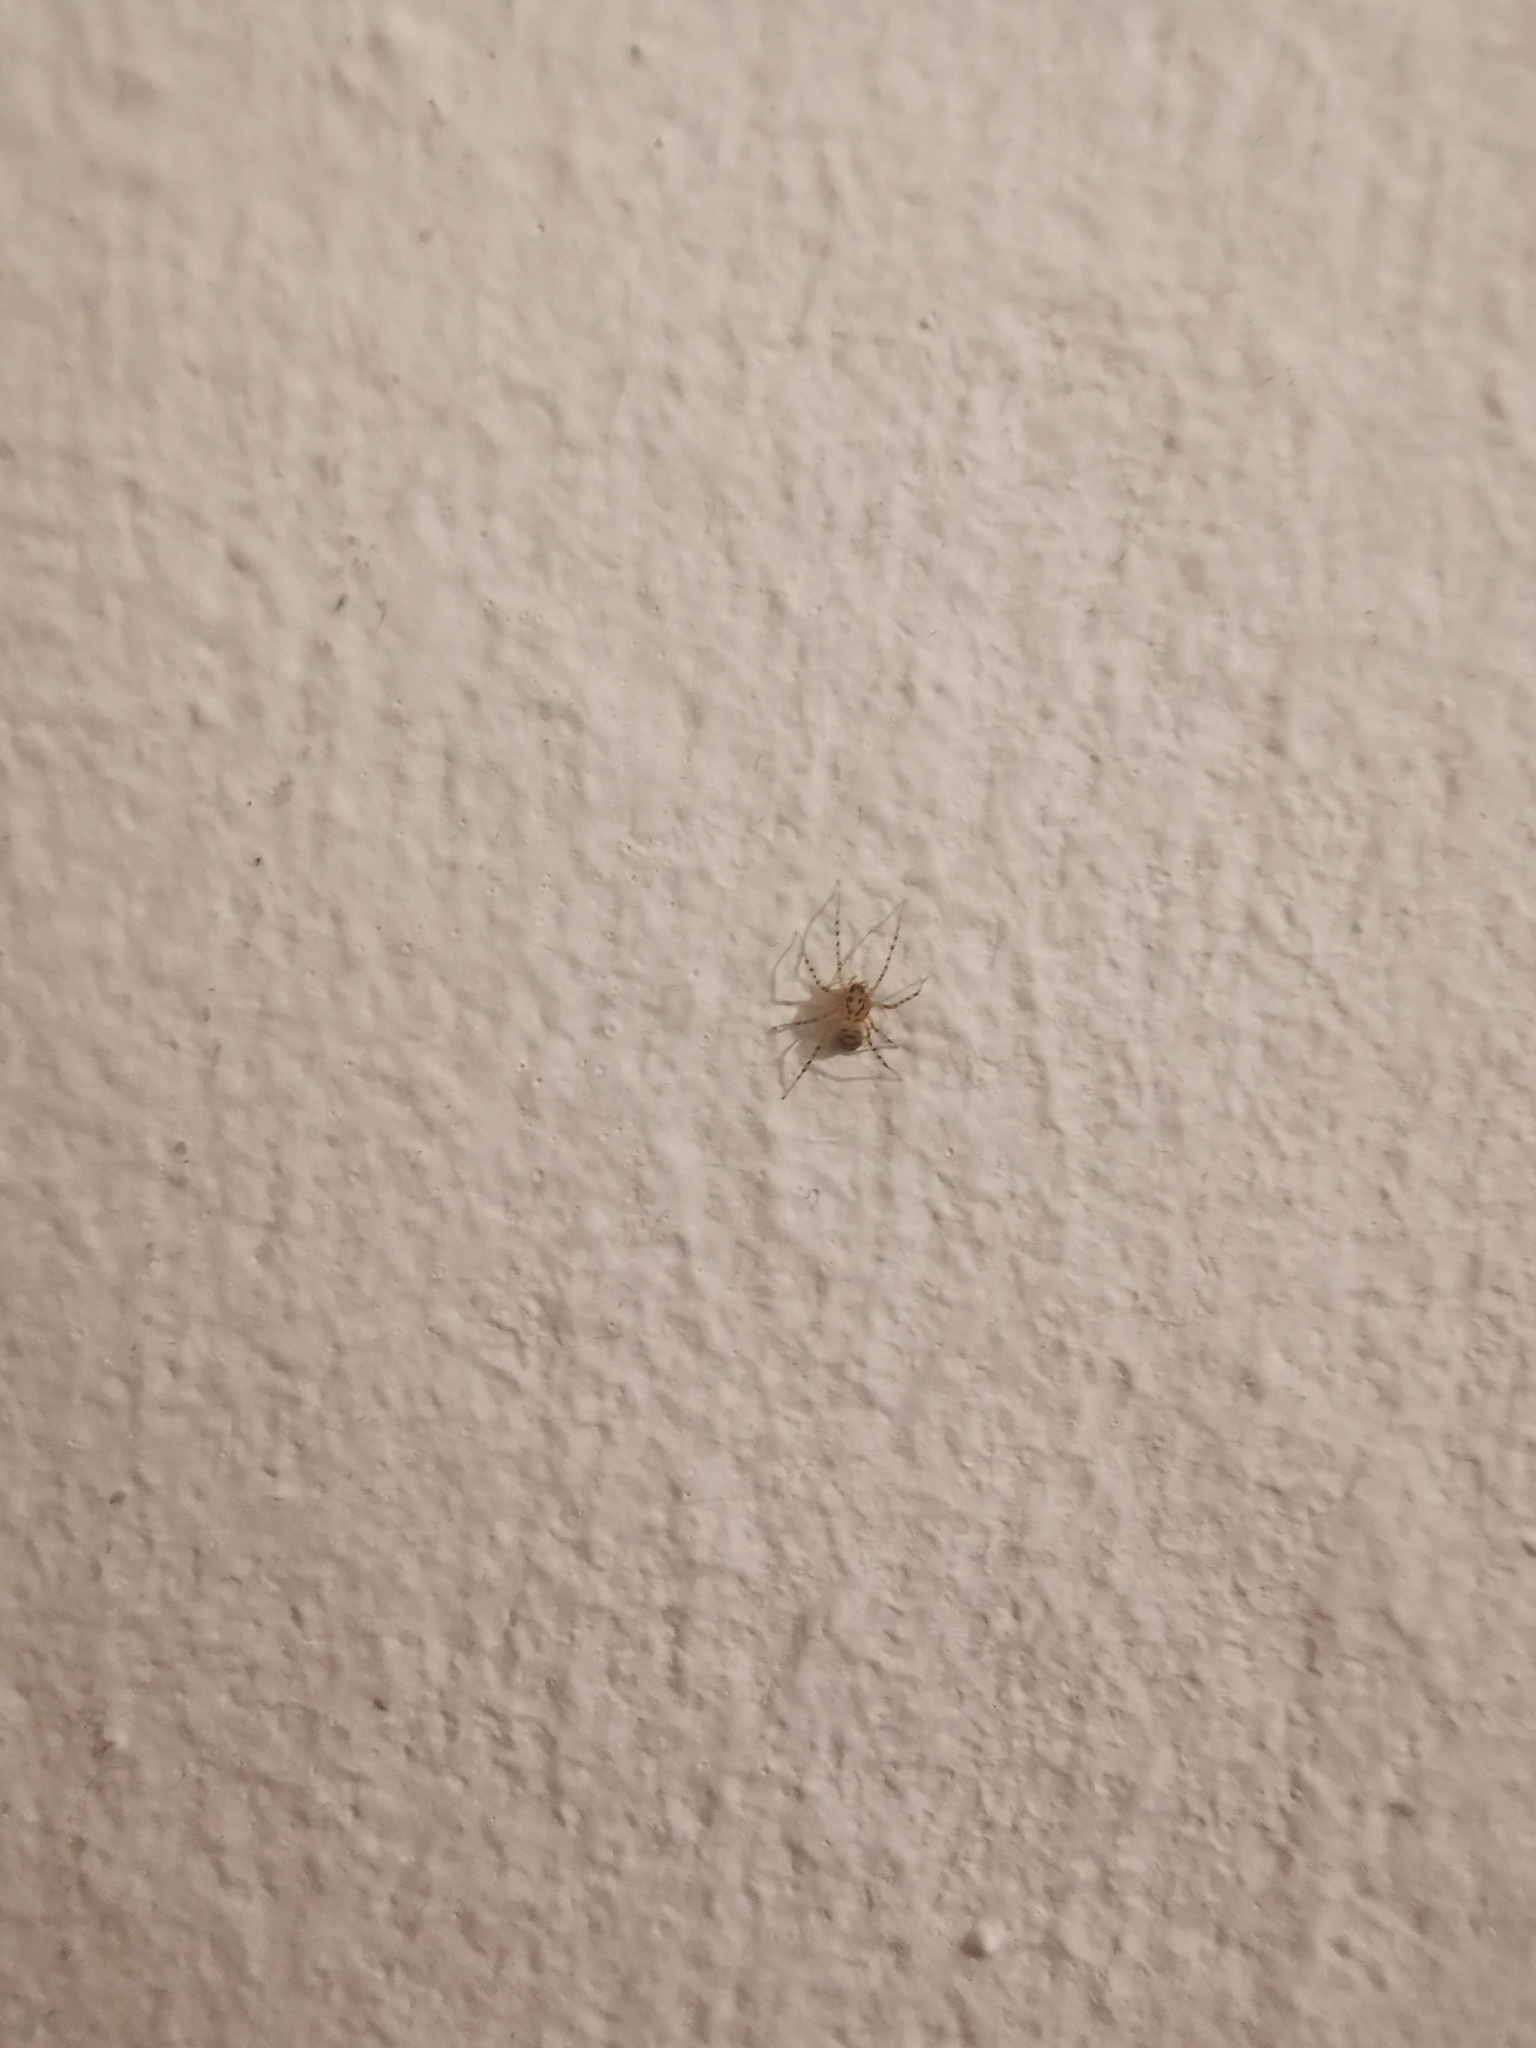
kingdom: Animalia
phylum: Arthropoda
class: Arachnida
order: Araneae
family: Scytodidae
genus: Scytodes
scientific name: Scytodes thoracica
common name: Spitting spider
